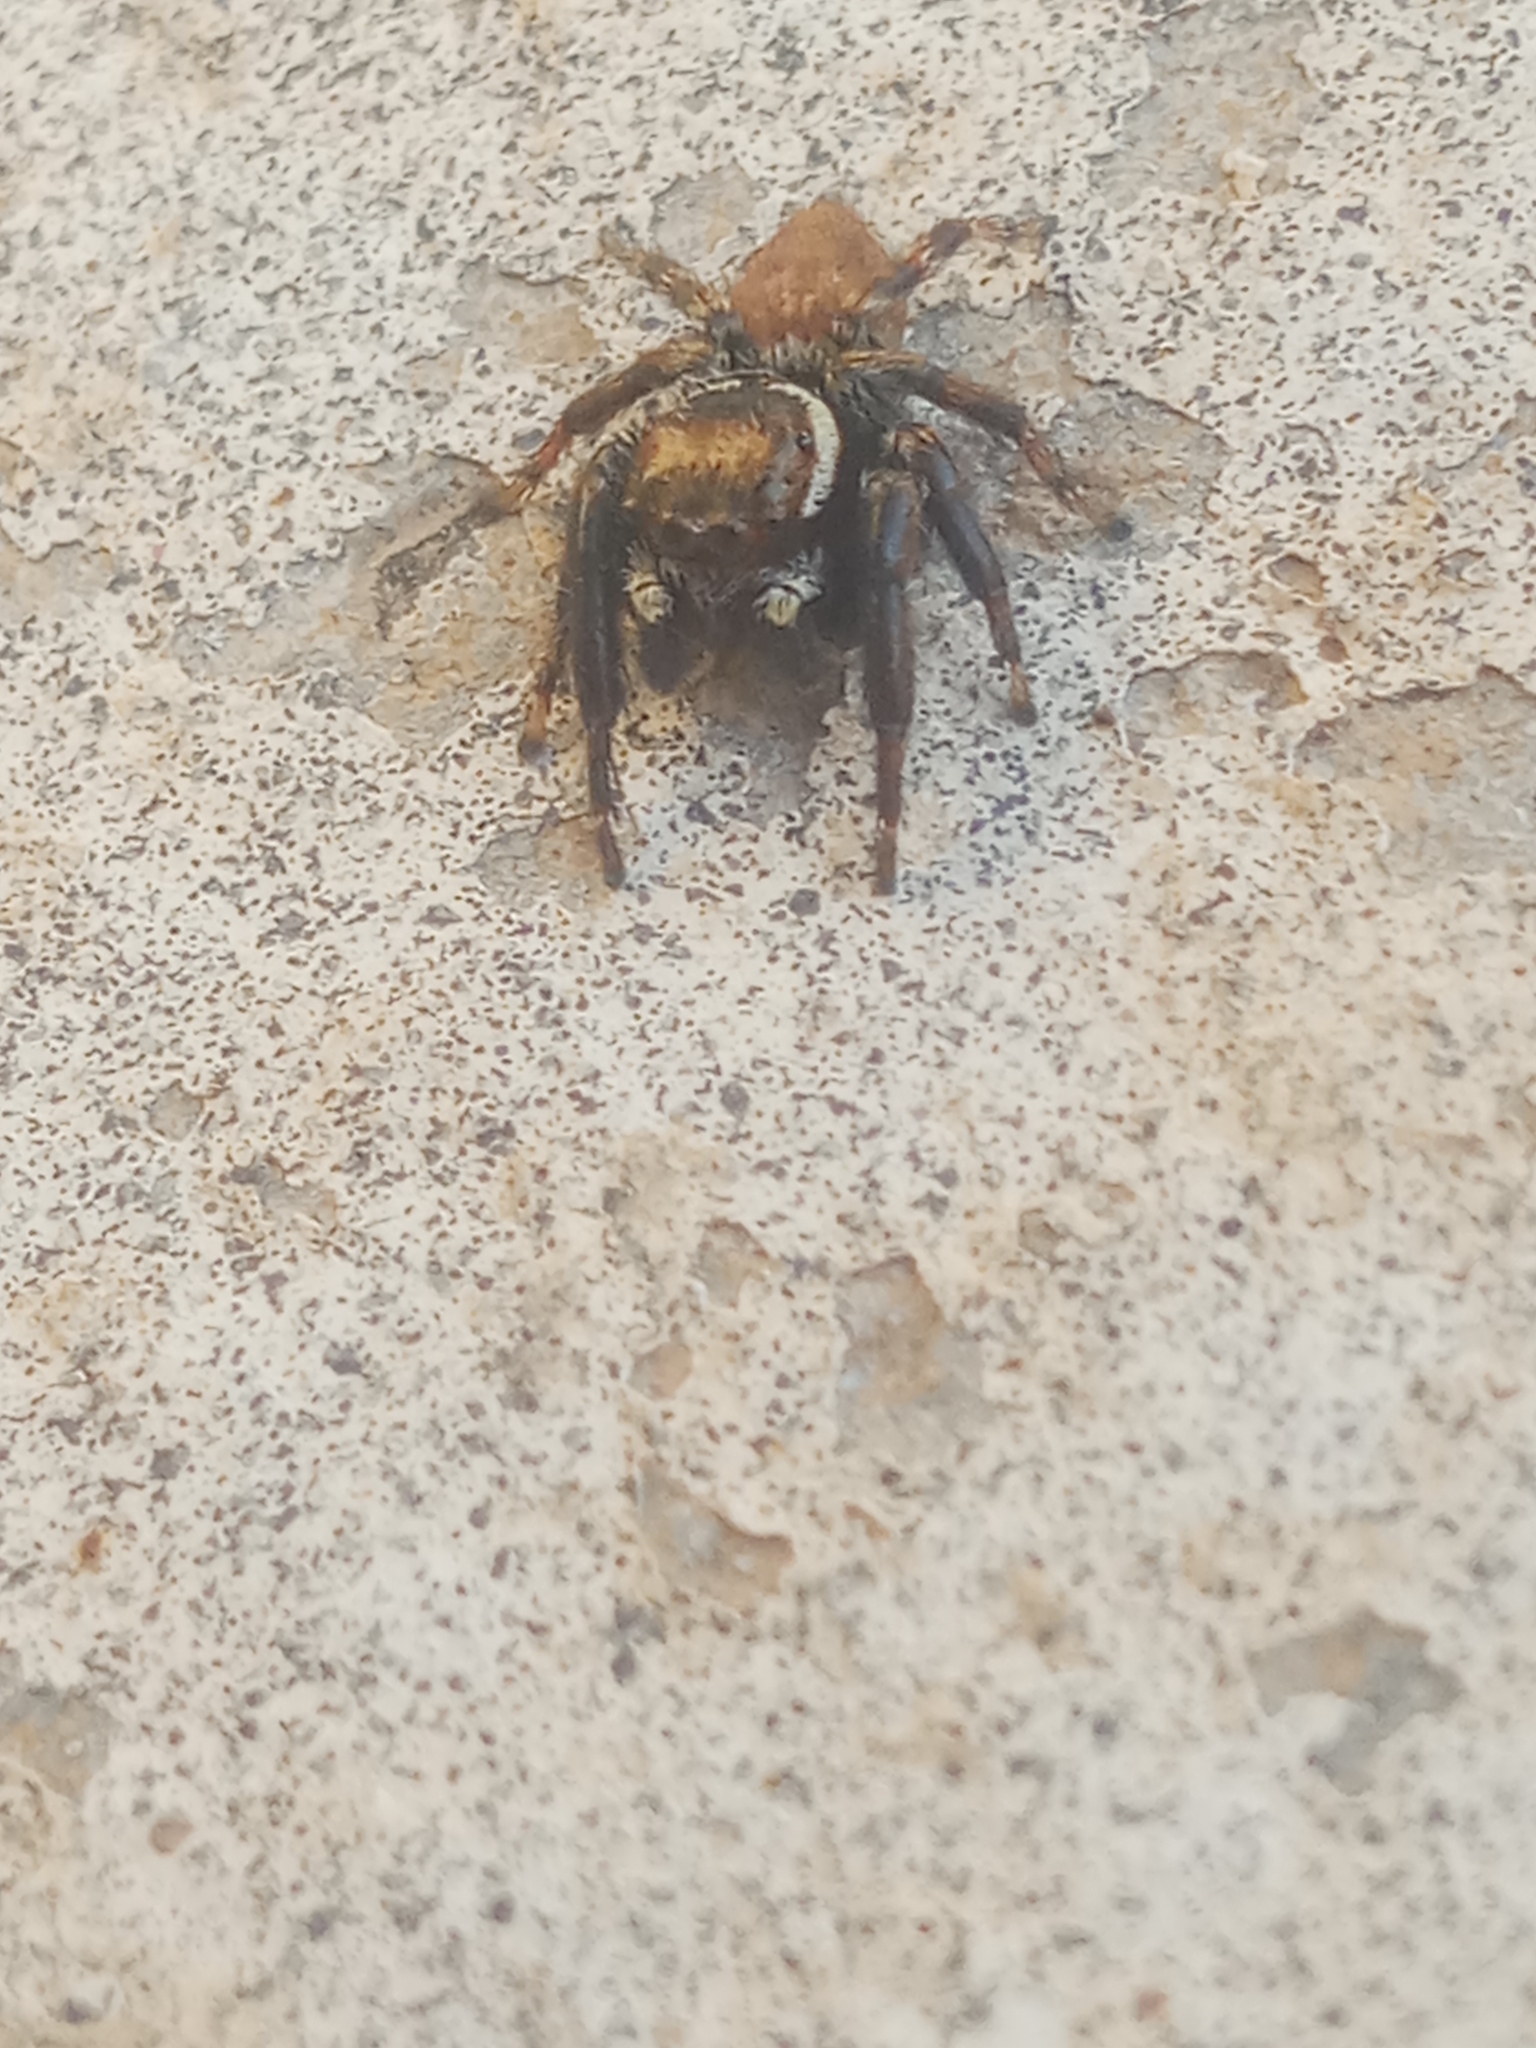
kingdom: Animalia
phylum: Arthropoda
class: Arachnida
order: Araneae
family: Salticidae
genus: Evarcha
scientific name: Evarcha jucunda
